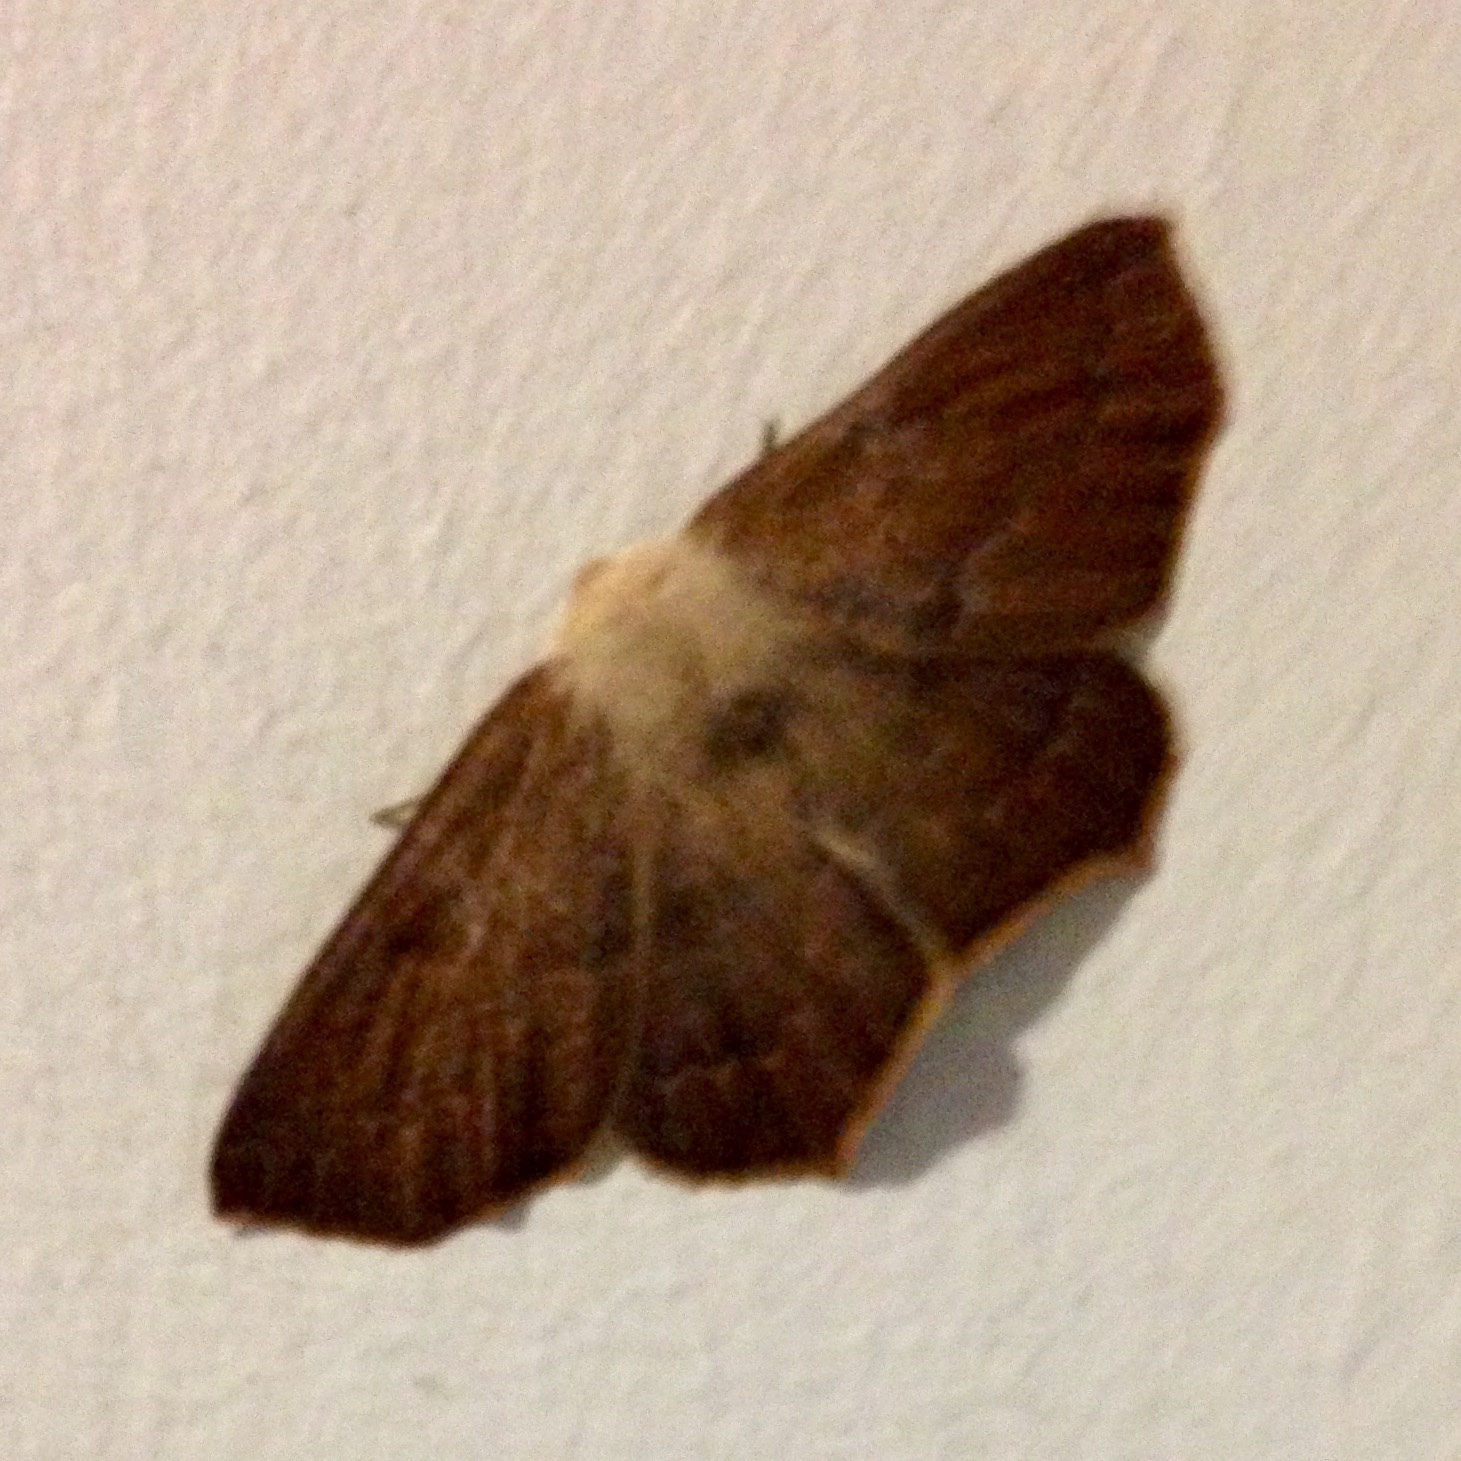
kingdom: Animalia
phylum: Arthropoda
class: Insecta
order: Lepidoptera
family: Geometridae
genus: Sabulodes
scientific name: Sabulodes aegrotata
